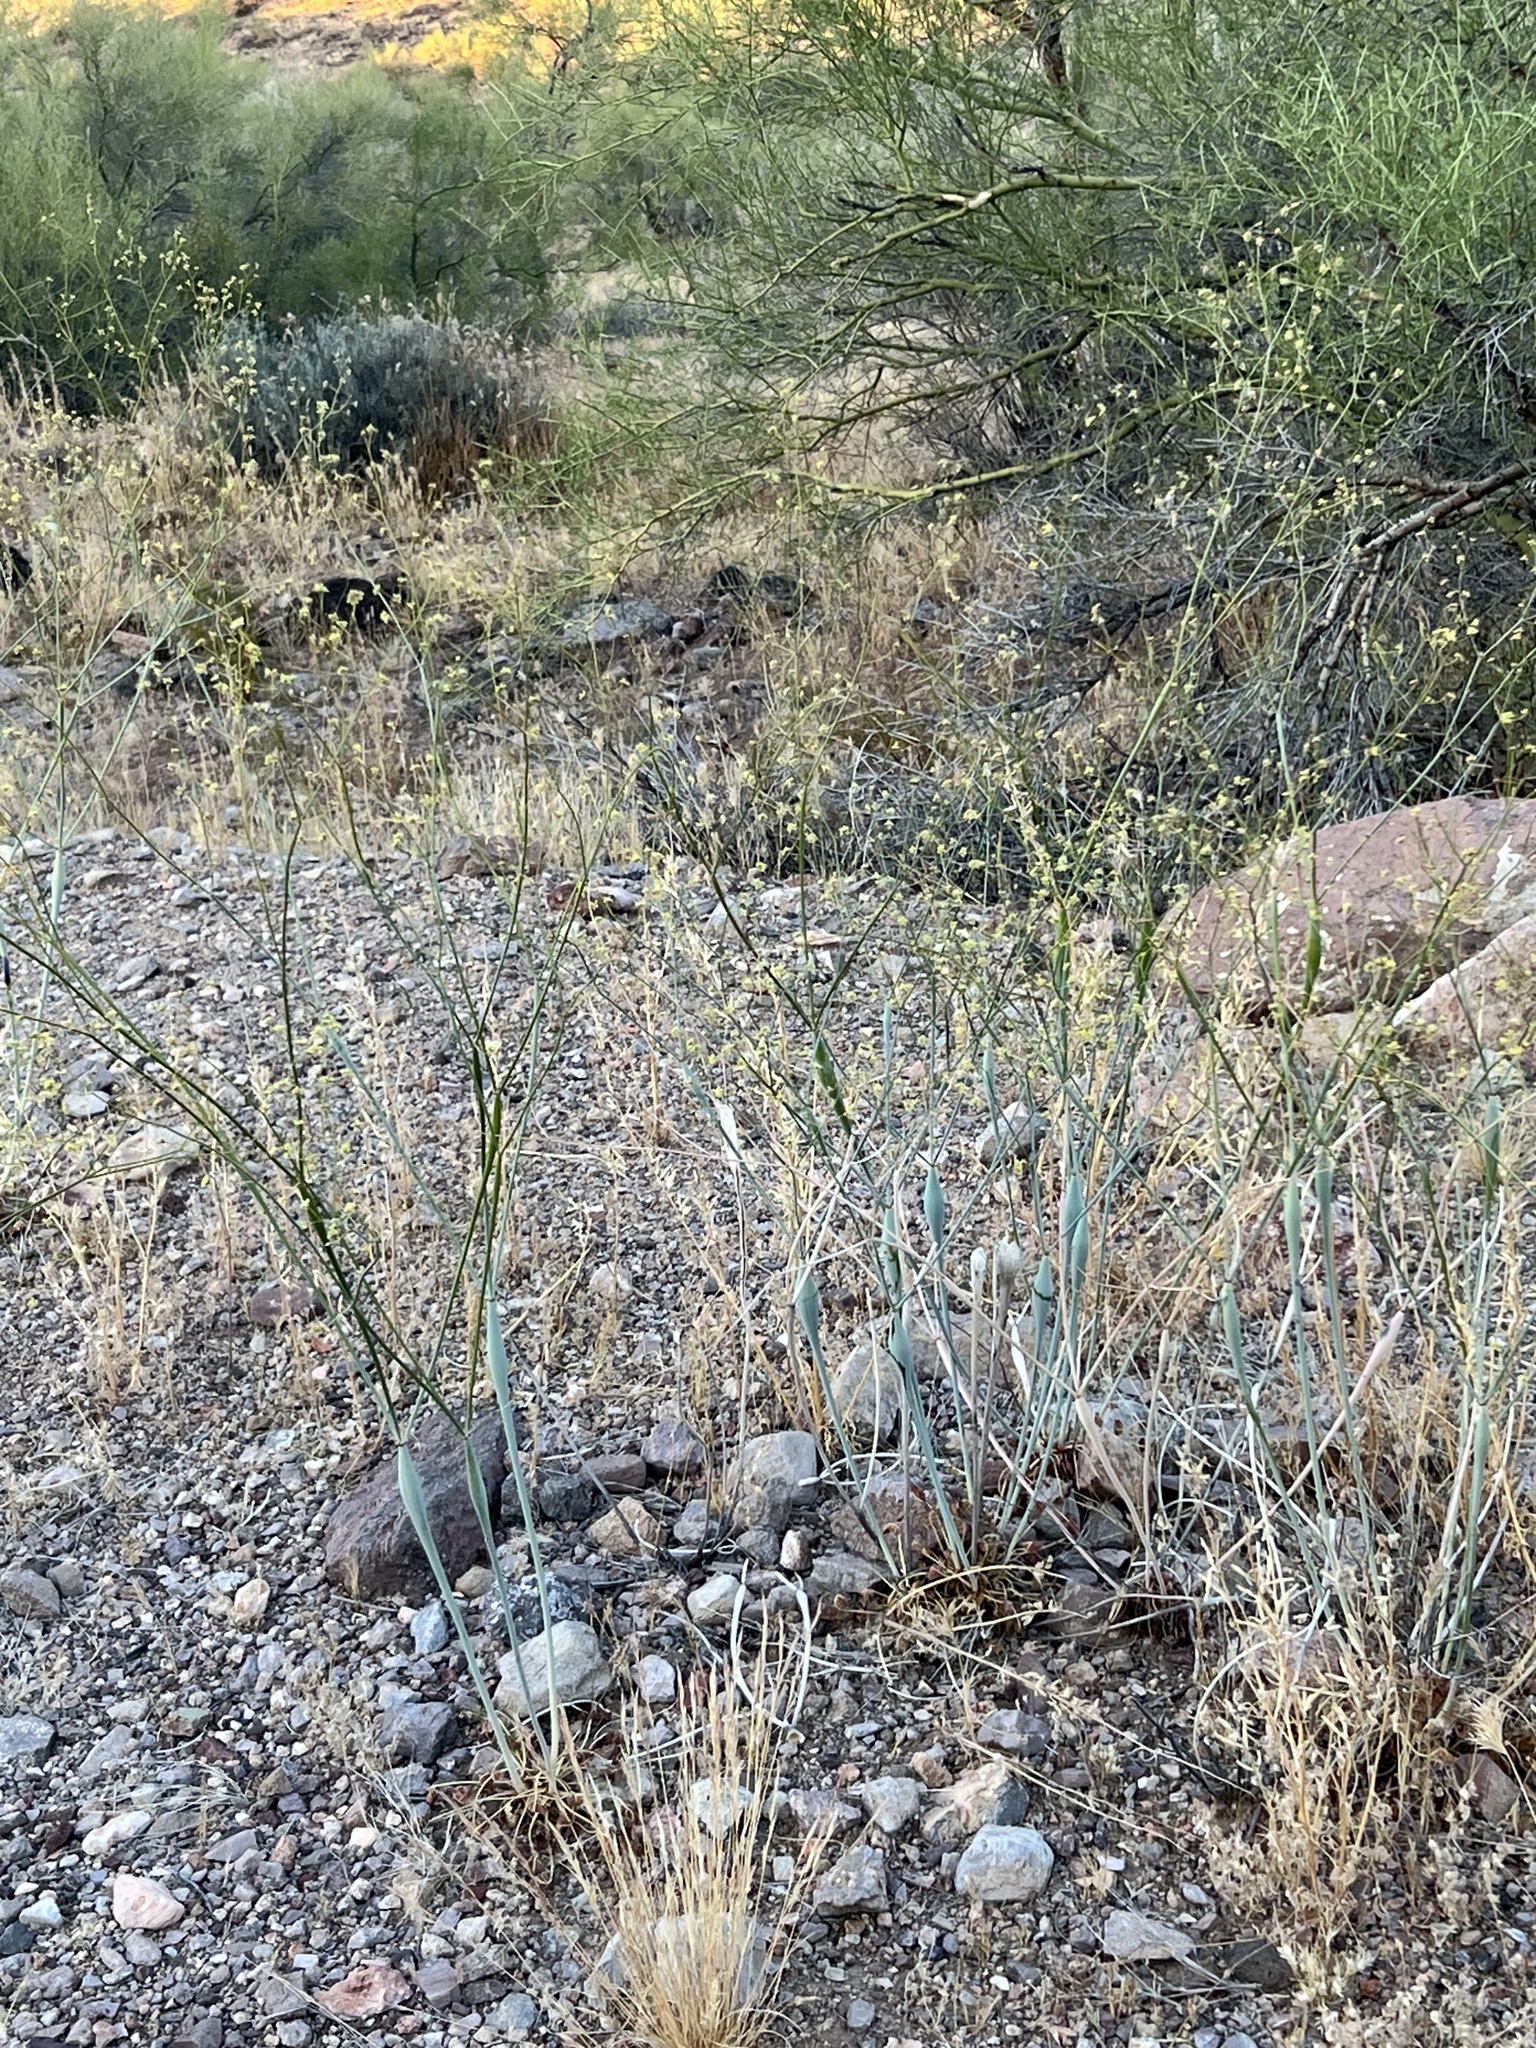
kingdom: Plantae
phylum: Tracheophyta
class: Magnoliopsida
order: Caryophyllales
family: Polygonaceae
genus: Eriogonum
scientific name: Eriogonum inflatum
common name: Desert trumpet
